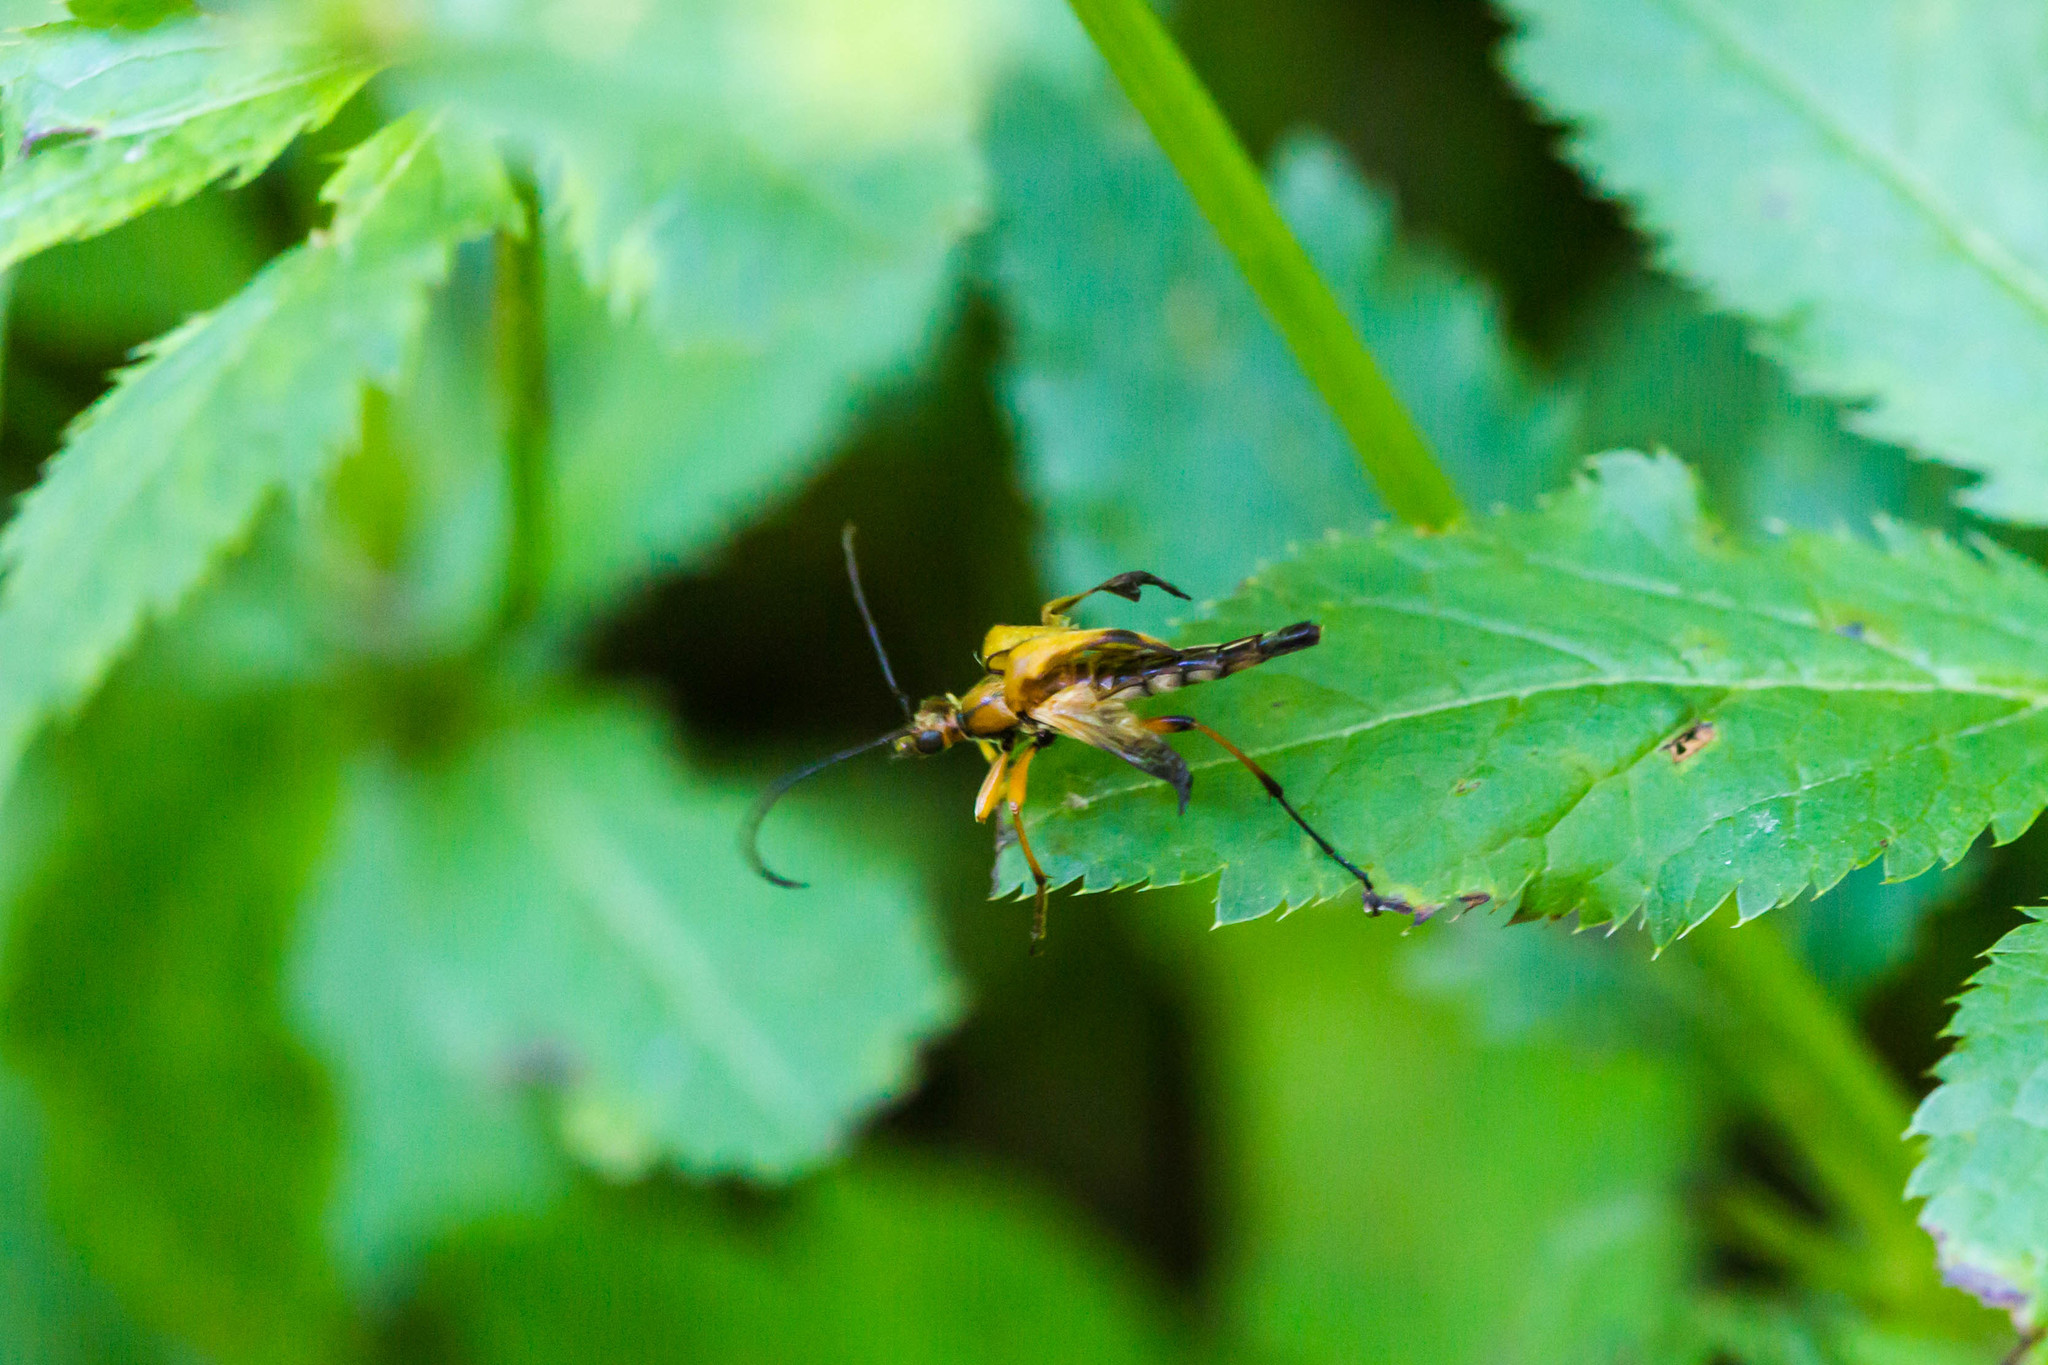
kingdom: Animalia
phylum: Arthropoda
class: Insecta
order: Coleoptera
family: Cerambycidae
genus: Strangalia
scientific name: Strangalia famelica
